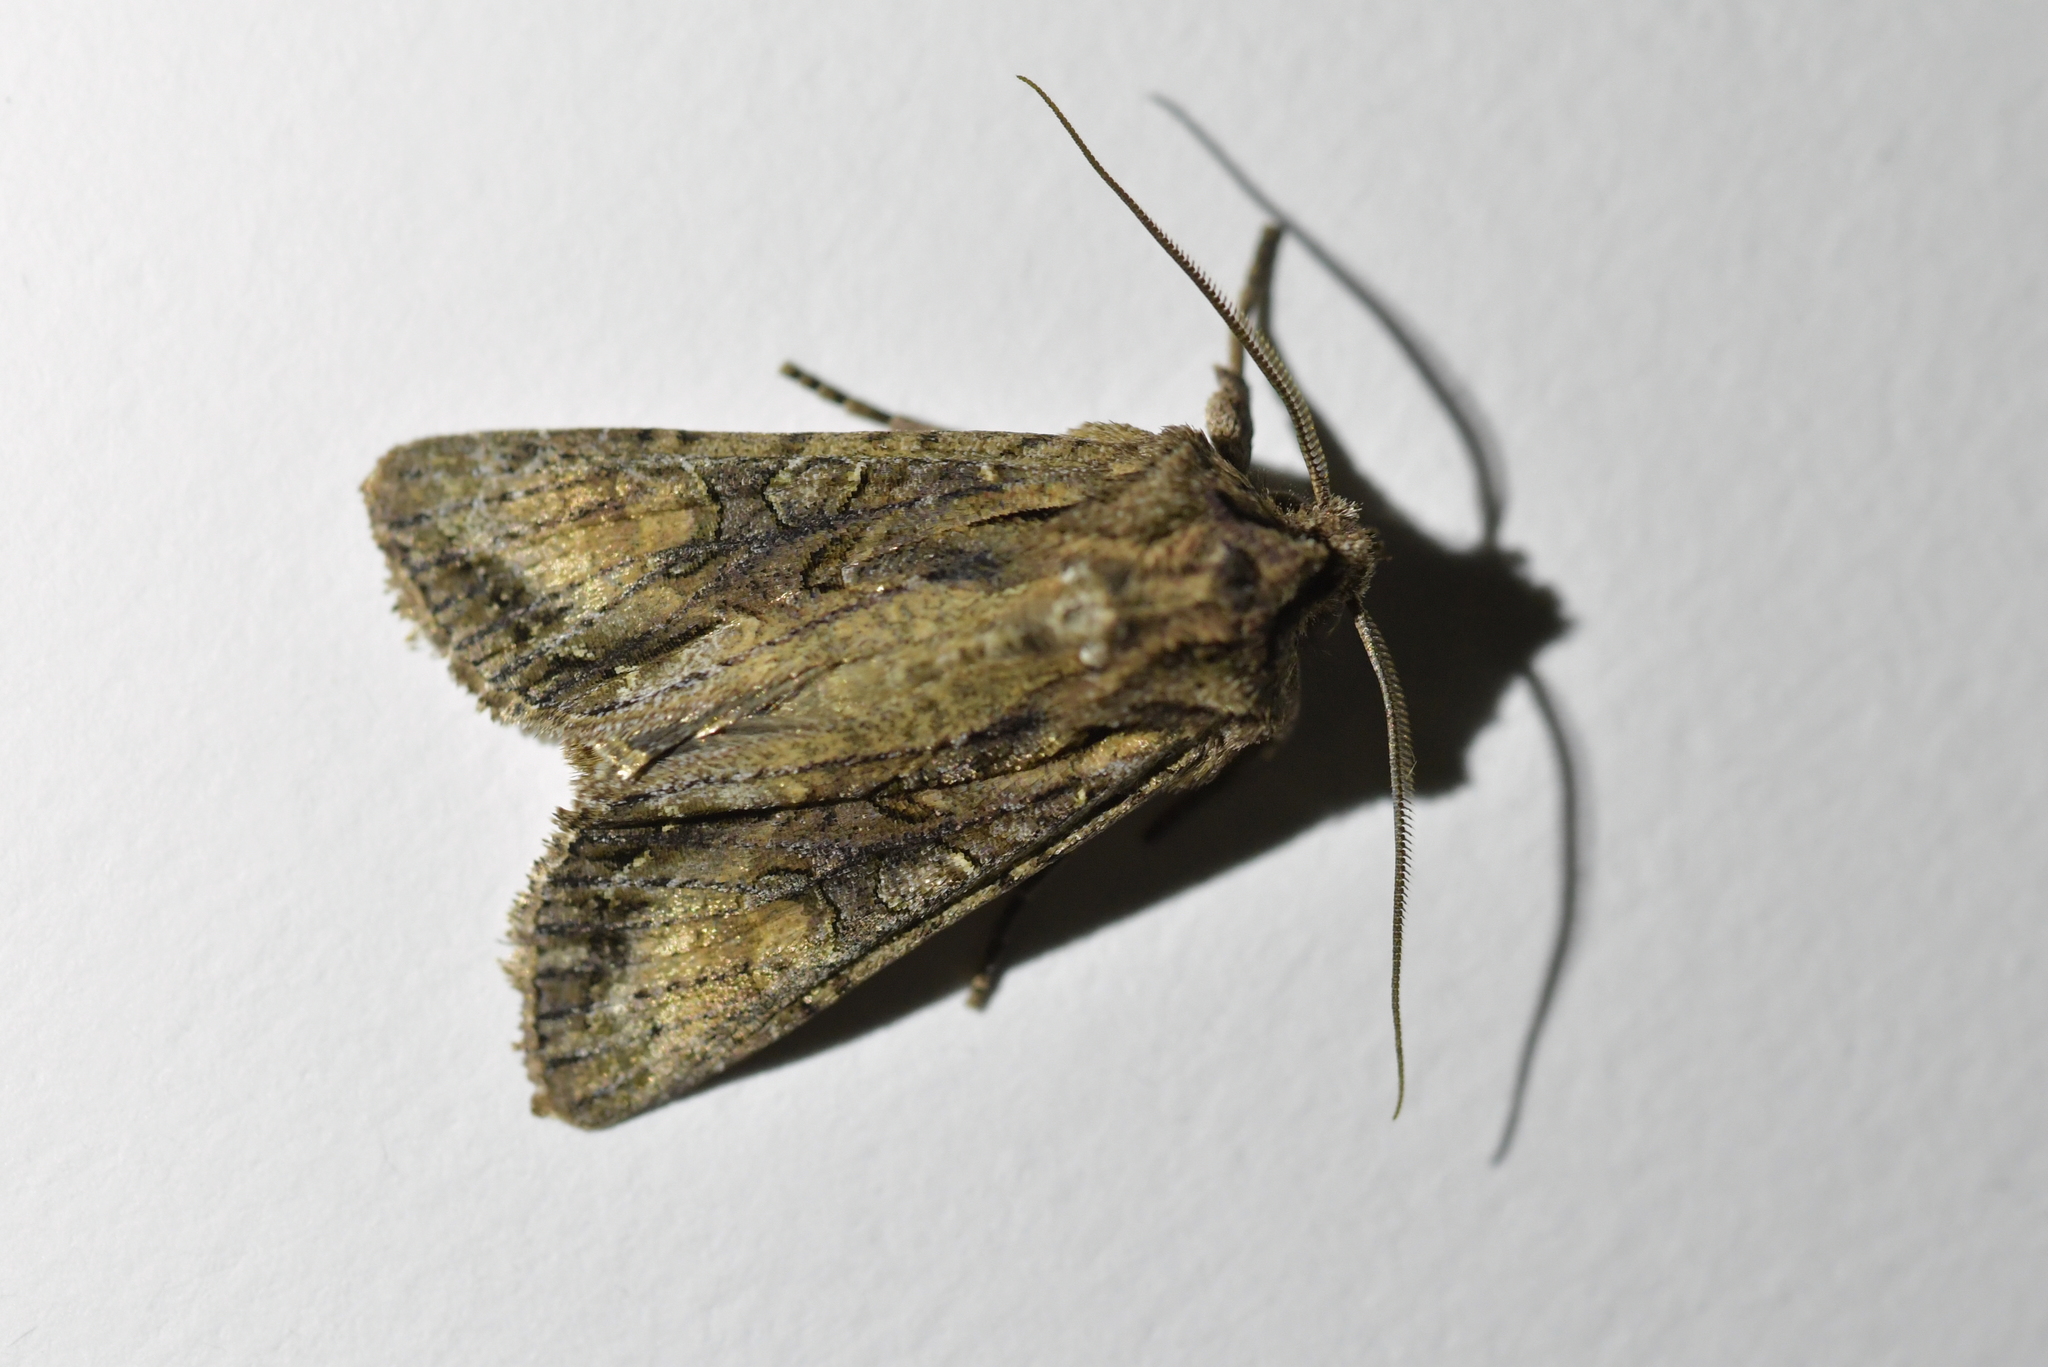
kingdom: Animalia
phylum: Arthropoda
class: Insecta
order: Lepidoptera
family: Noctuidae
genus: Ichneutica
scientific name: Ichneutica mutans
